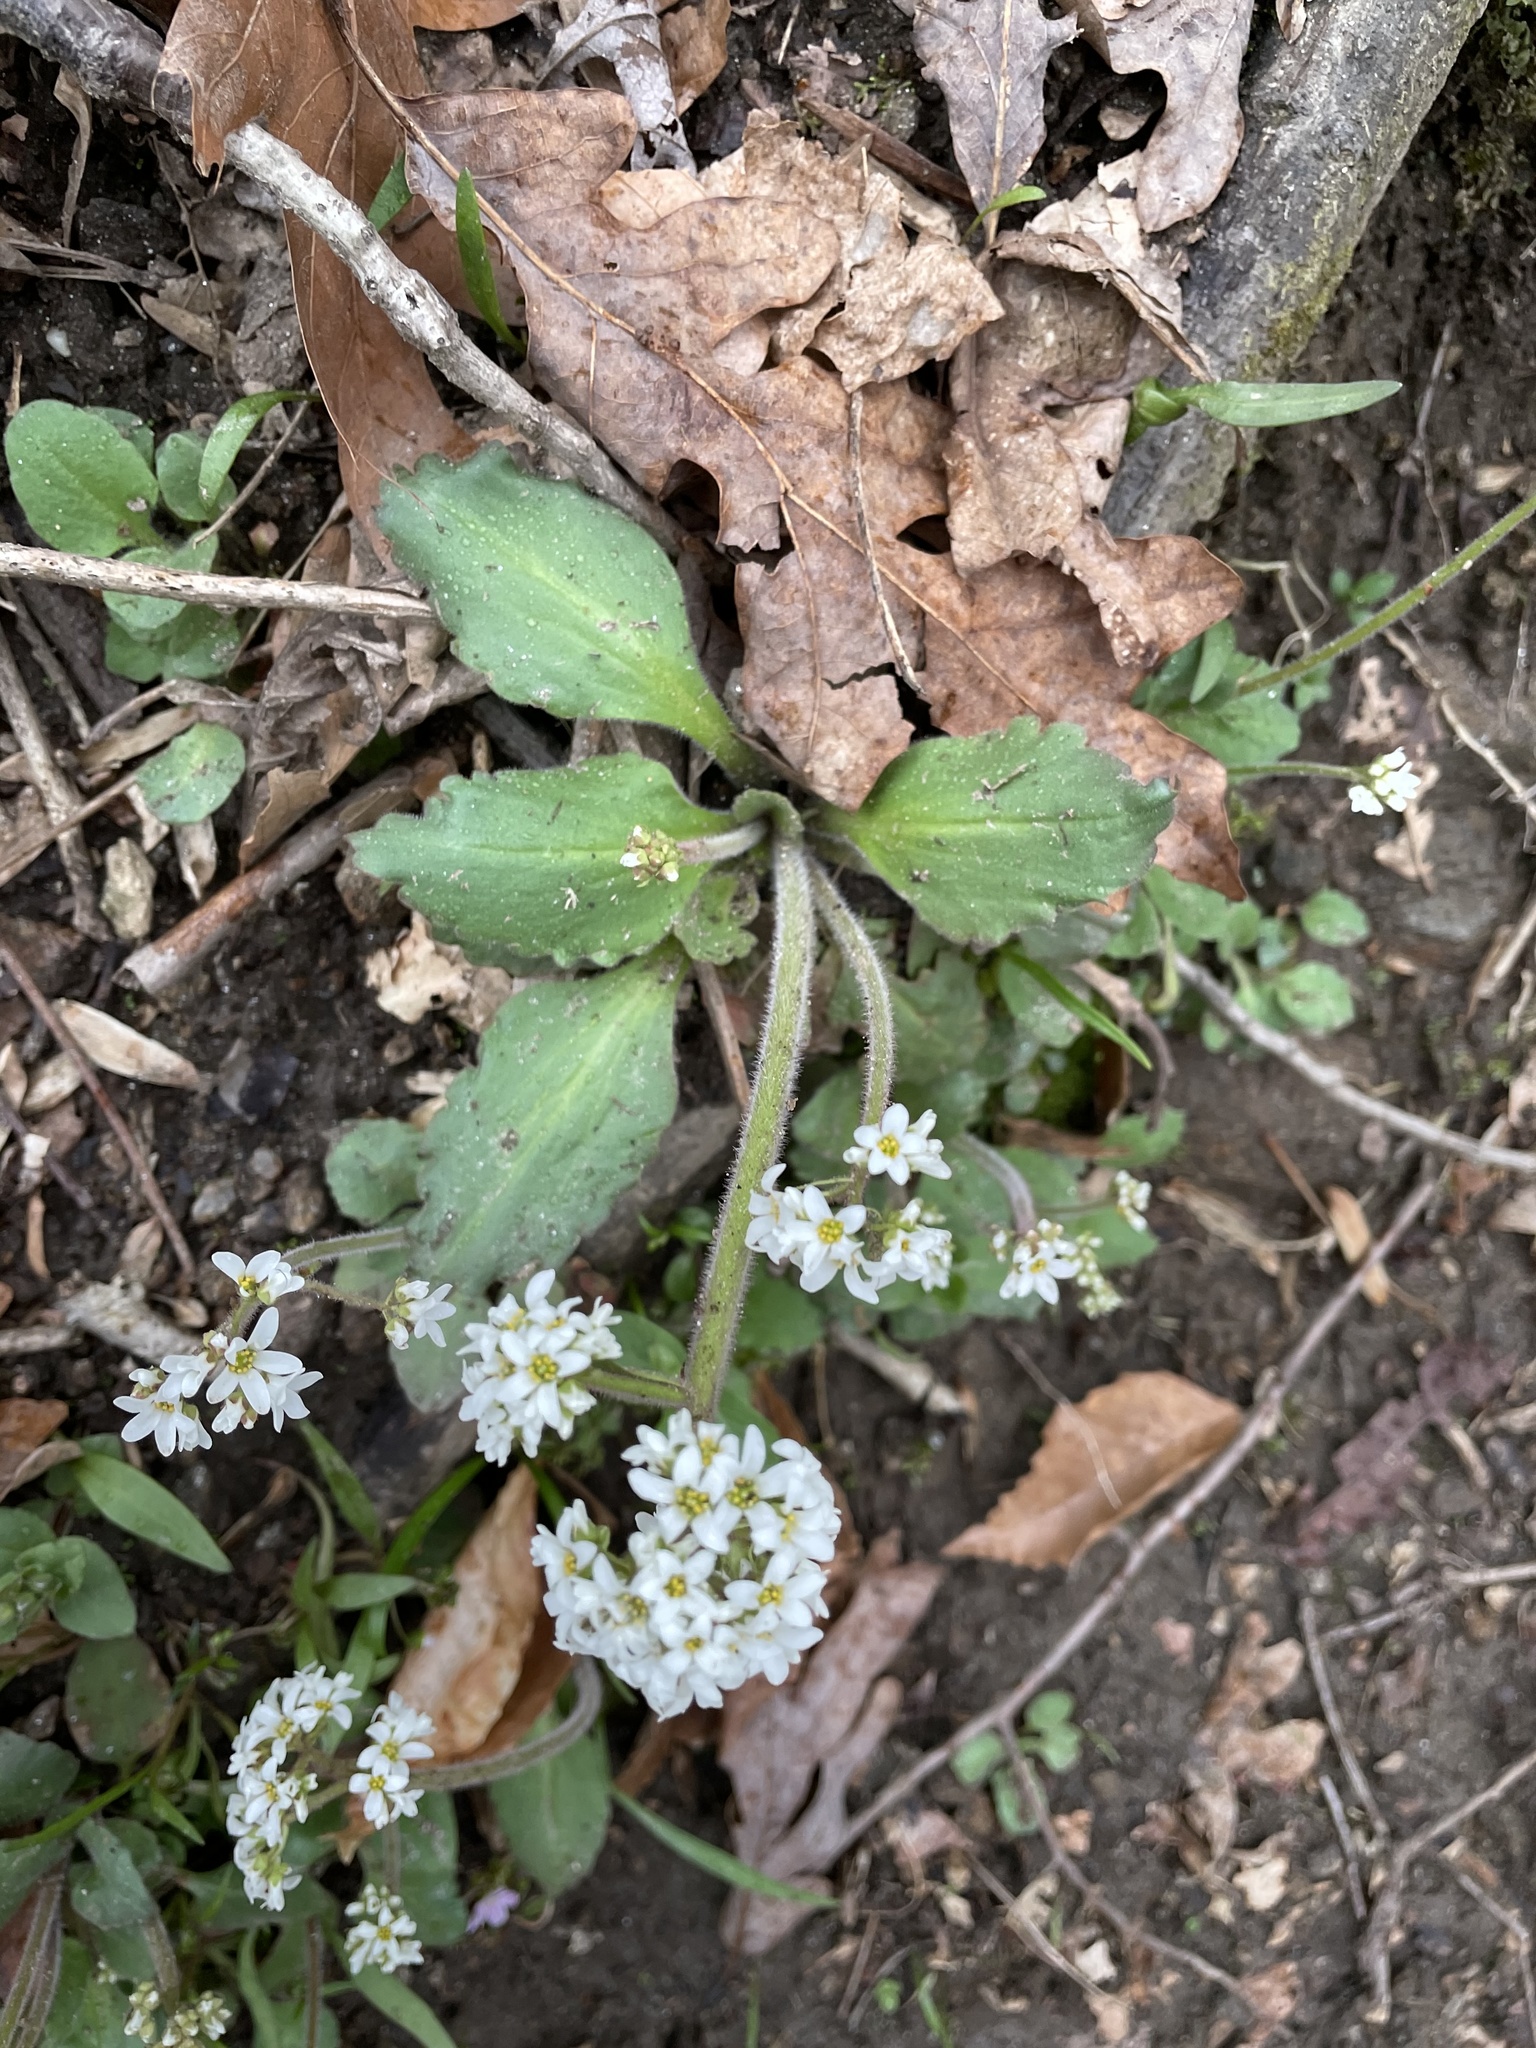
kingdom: Plantae
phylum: Tracheophyta
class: Magnoliopsida
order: Saxifragales
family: Saxifragaceae
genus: Micranthes
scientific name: Micranthes virginiensis
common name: Early saxifrage
